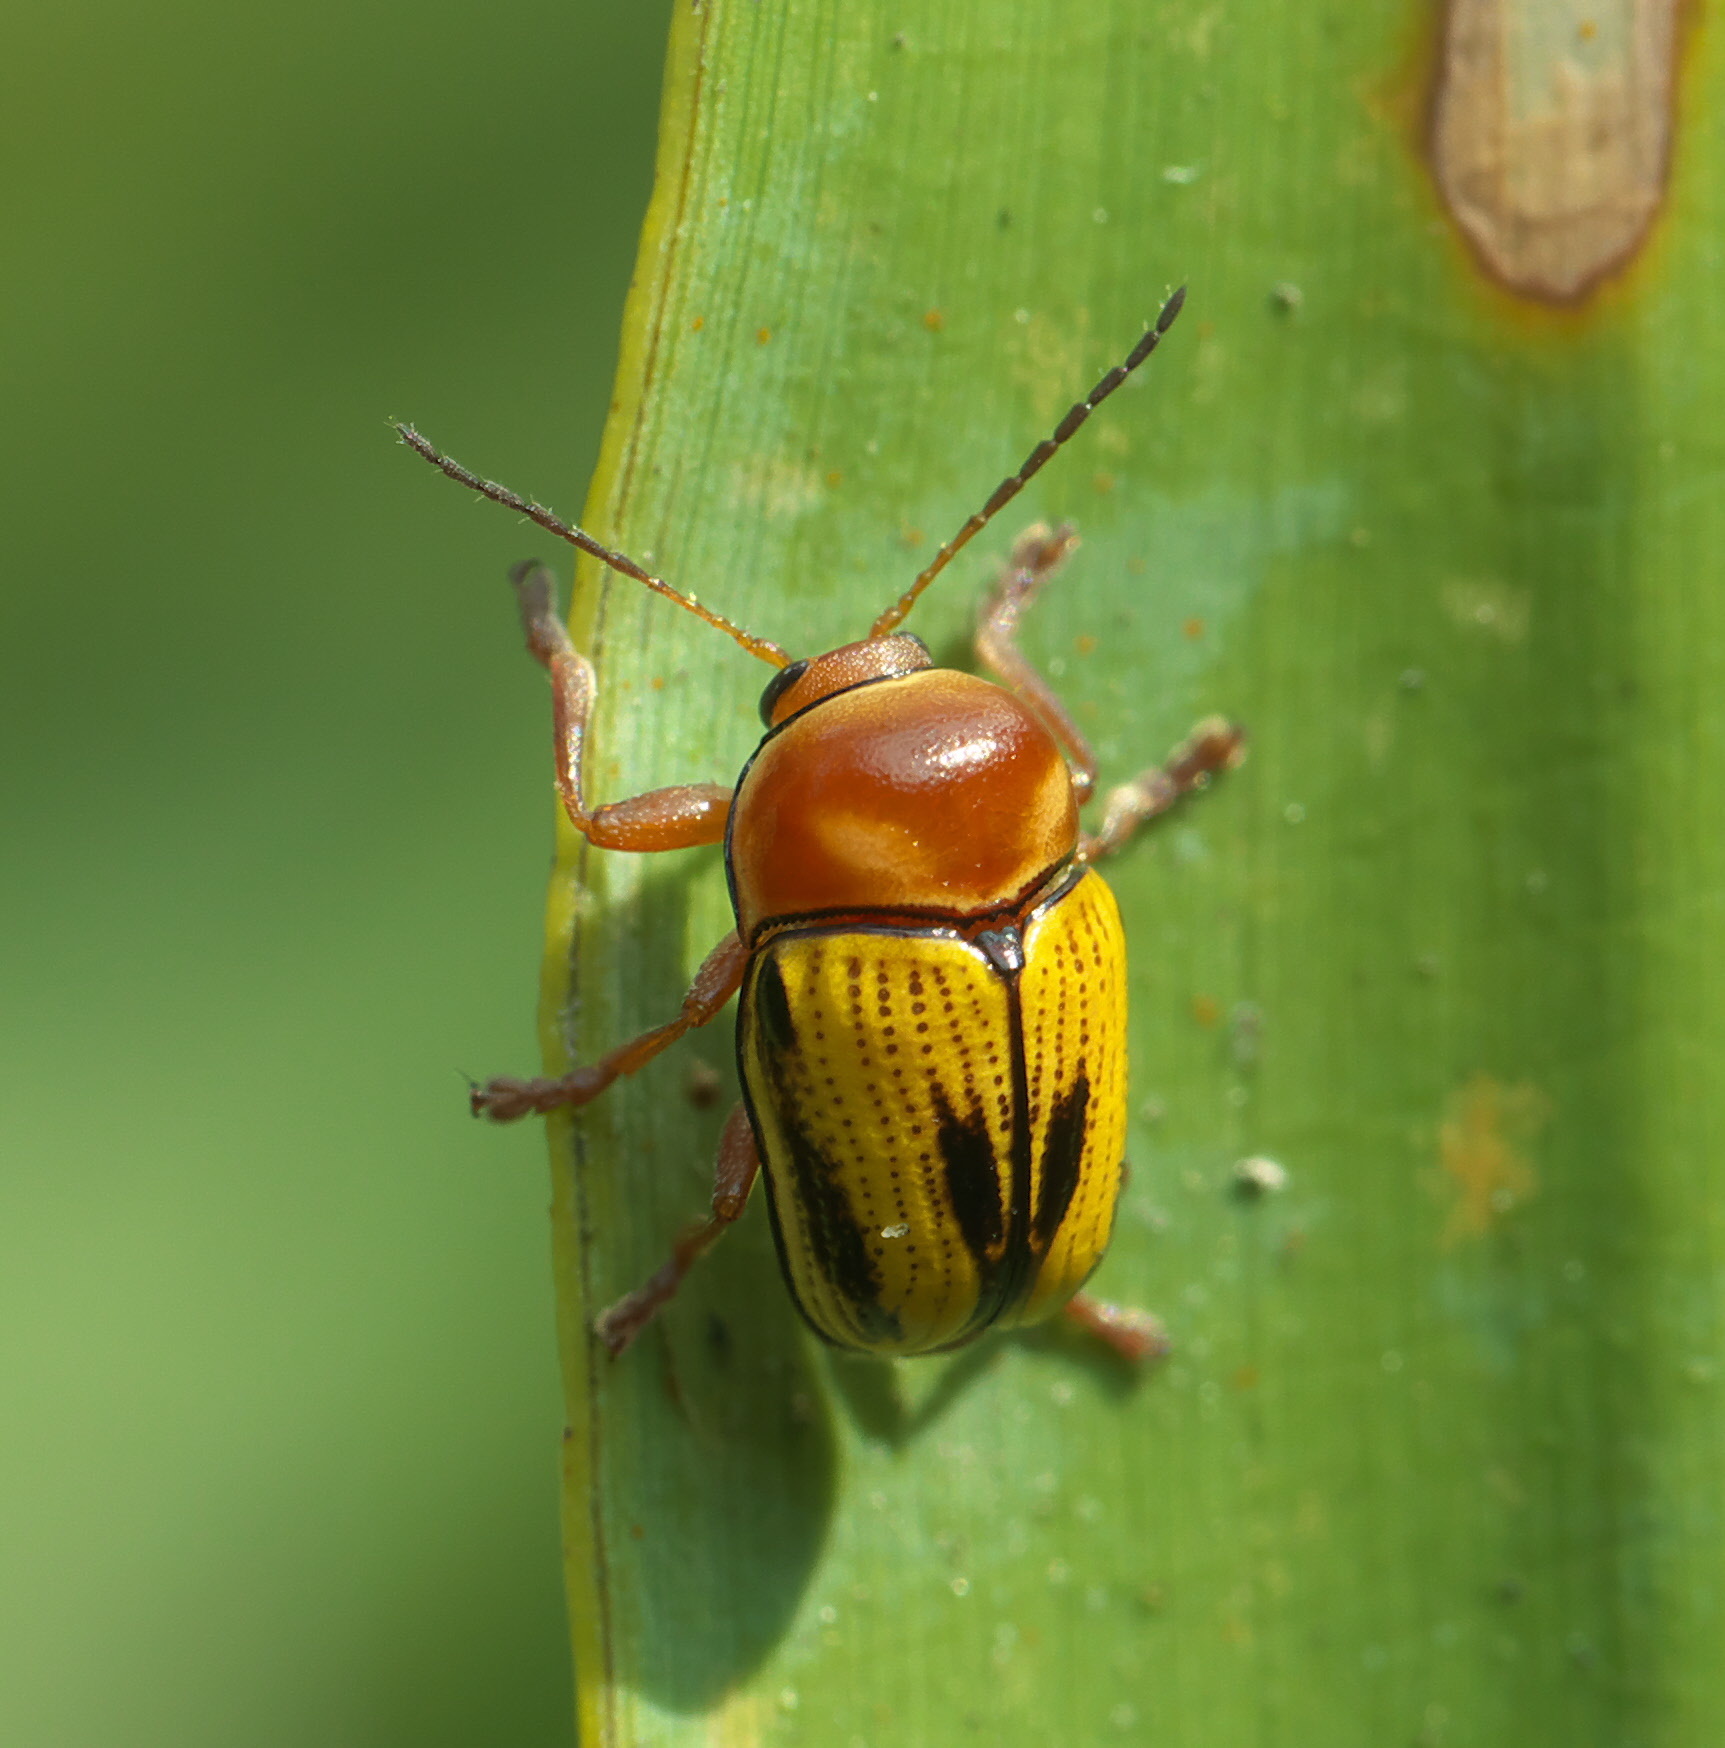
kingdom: Animalia
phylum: Arthropoda
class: Insecta
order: Coleoptera
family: Chrysomelidae
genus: Cryptocephalus
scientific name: Cryptocephalus gibbicollis
